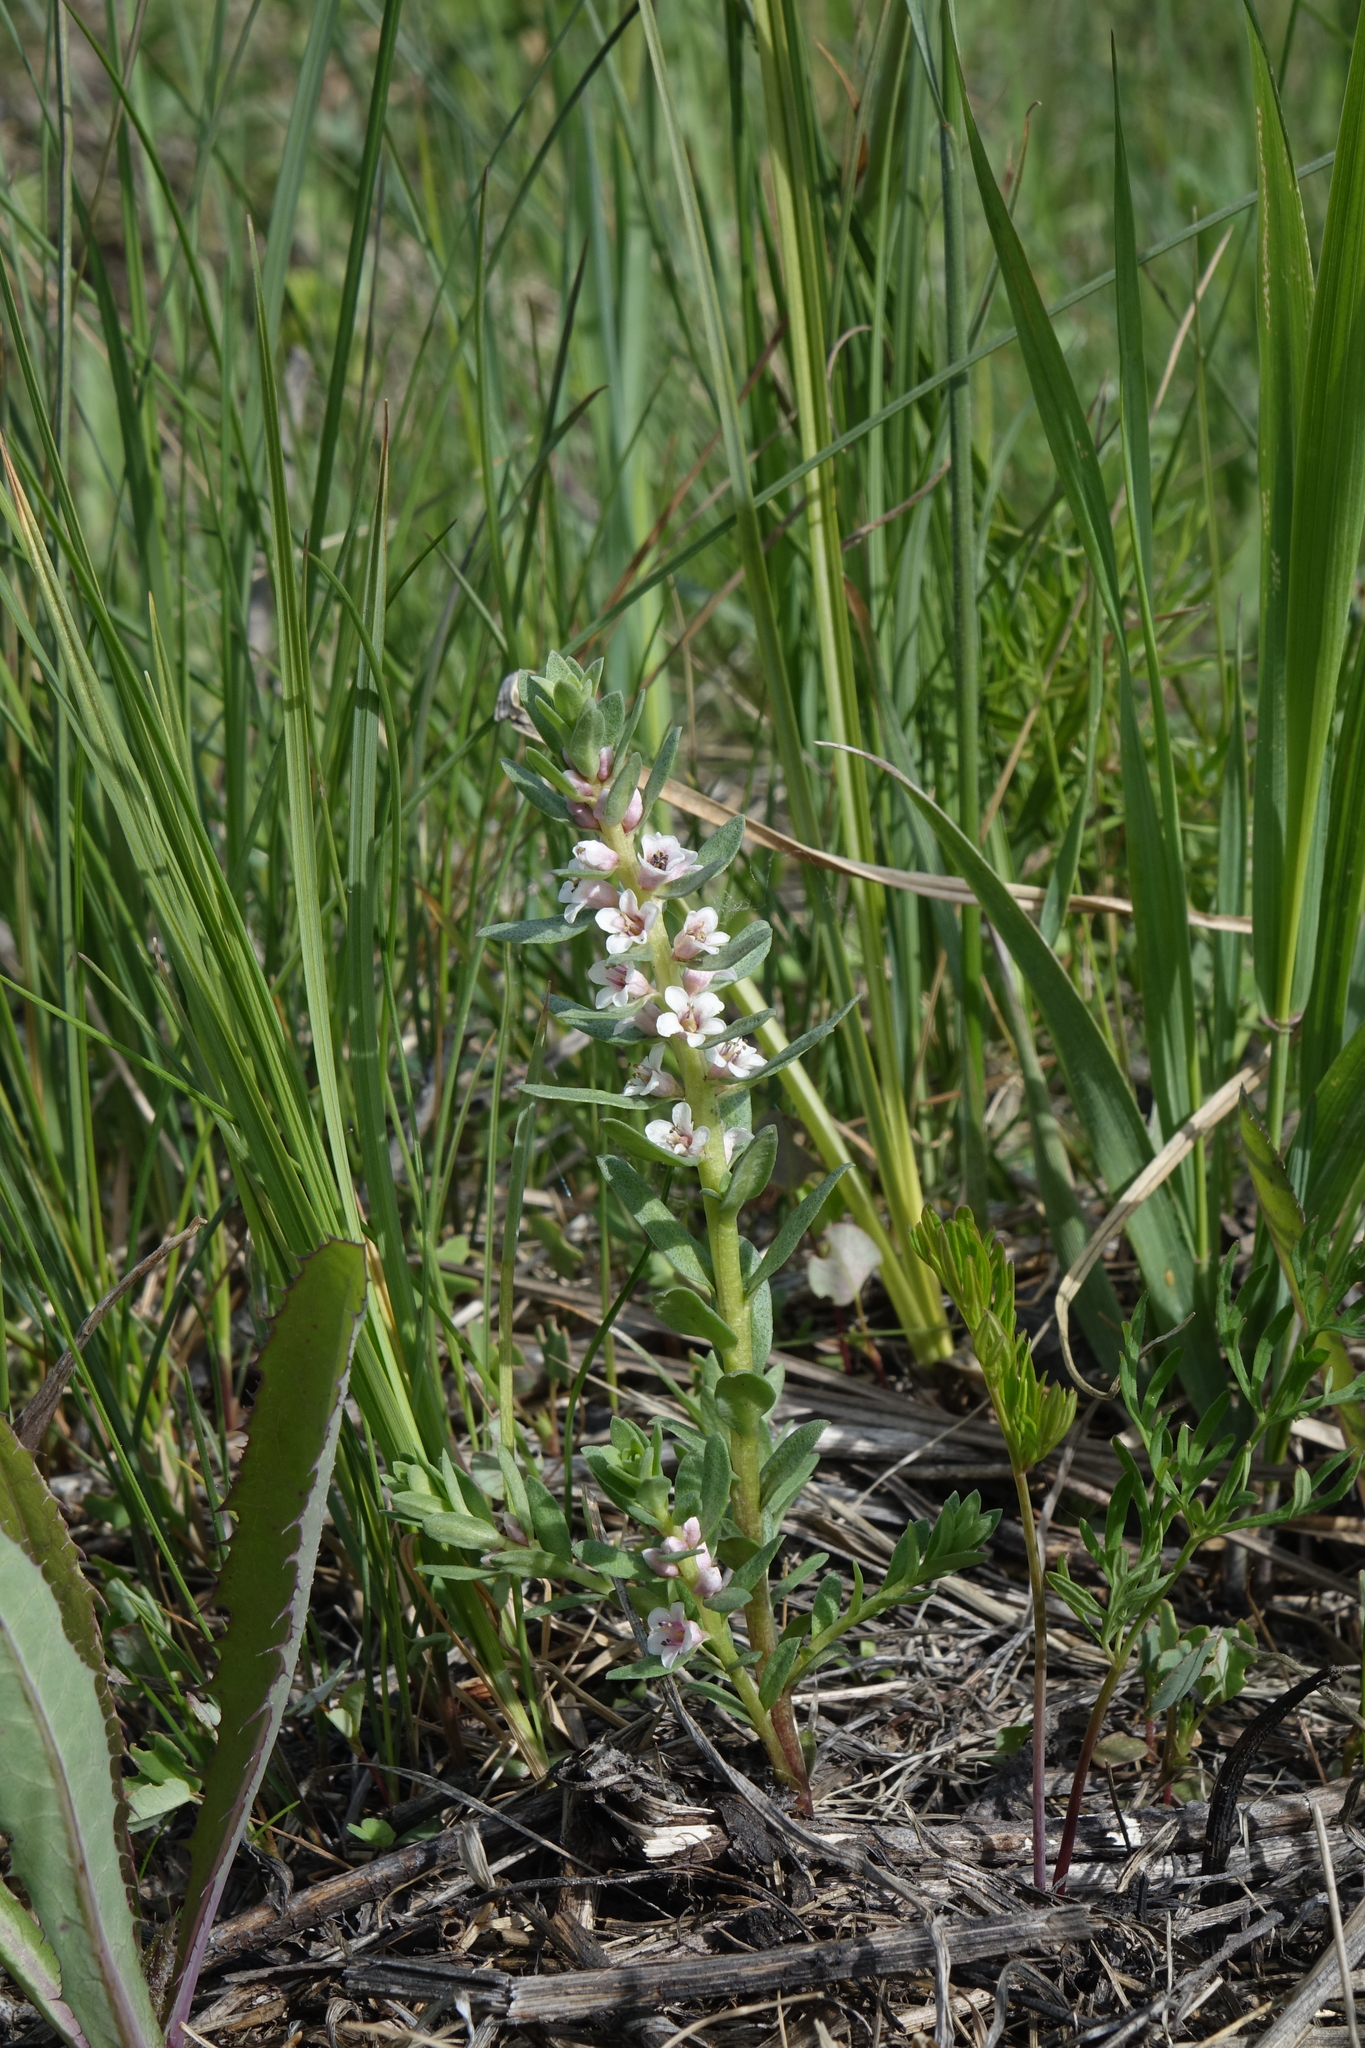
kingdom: Plantae
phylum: Tracheophyta
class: Magnoliopsida
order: Ericales
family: Primulaceae
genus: Lysimachia
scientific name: Lysimachia maritima
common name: Sea milkwort
